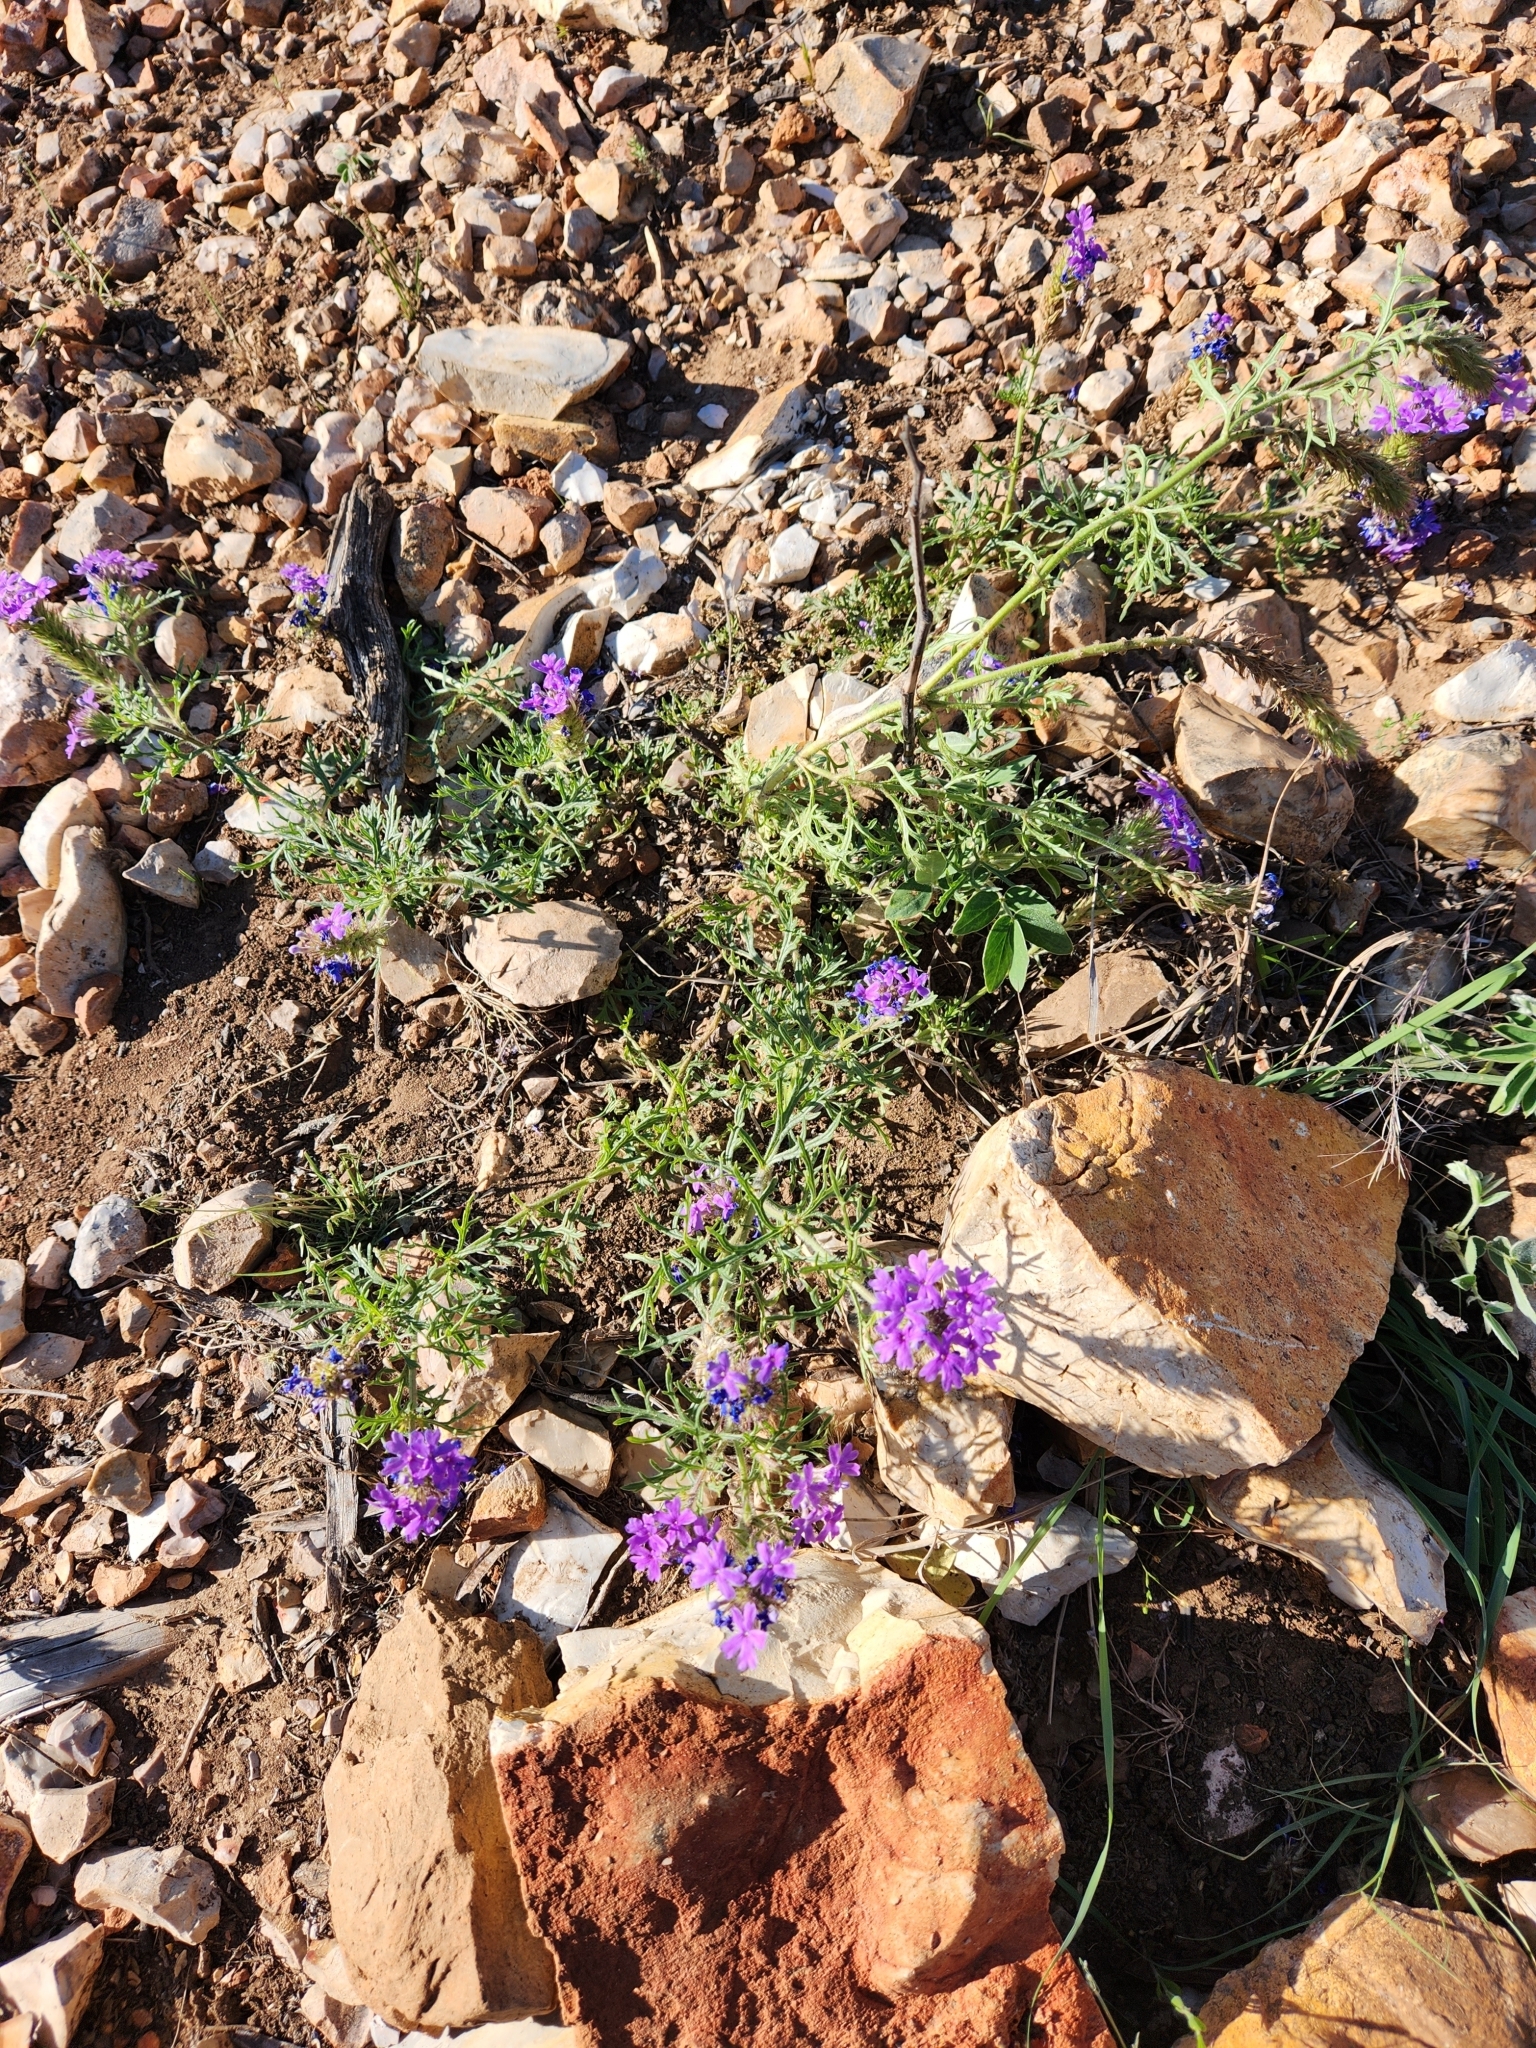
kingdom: Plantae
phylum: Tracheophyta
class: Magnoliopsida
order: Lamiales
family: Verbenaceae
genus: Verbena
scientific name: Verbena bipinnatifida
